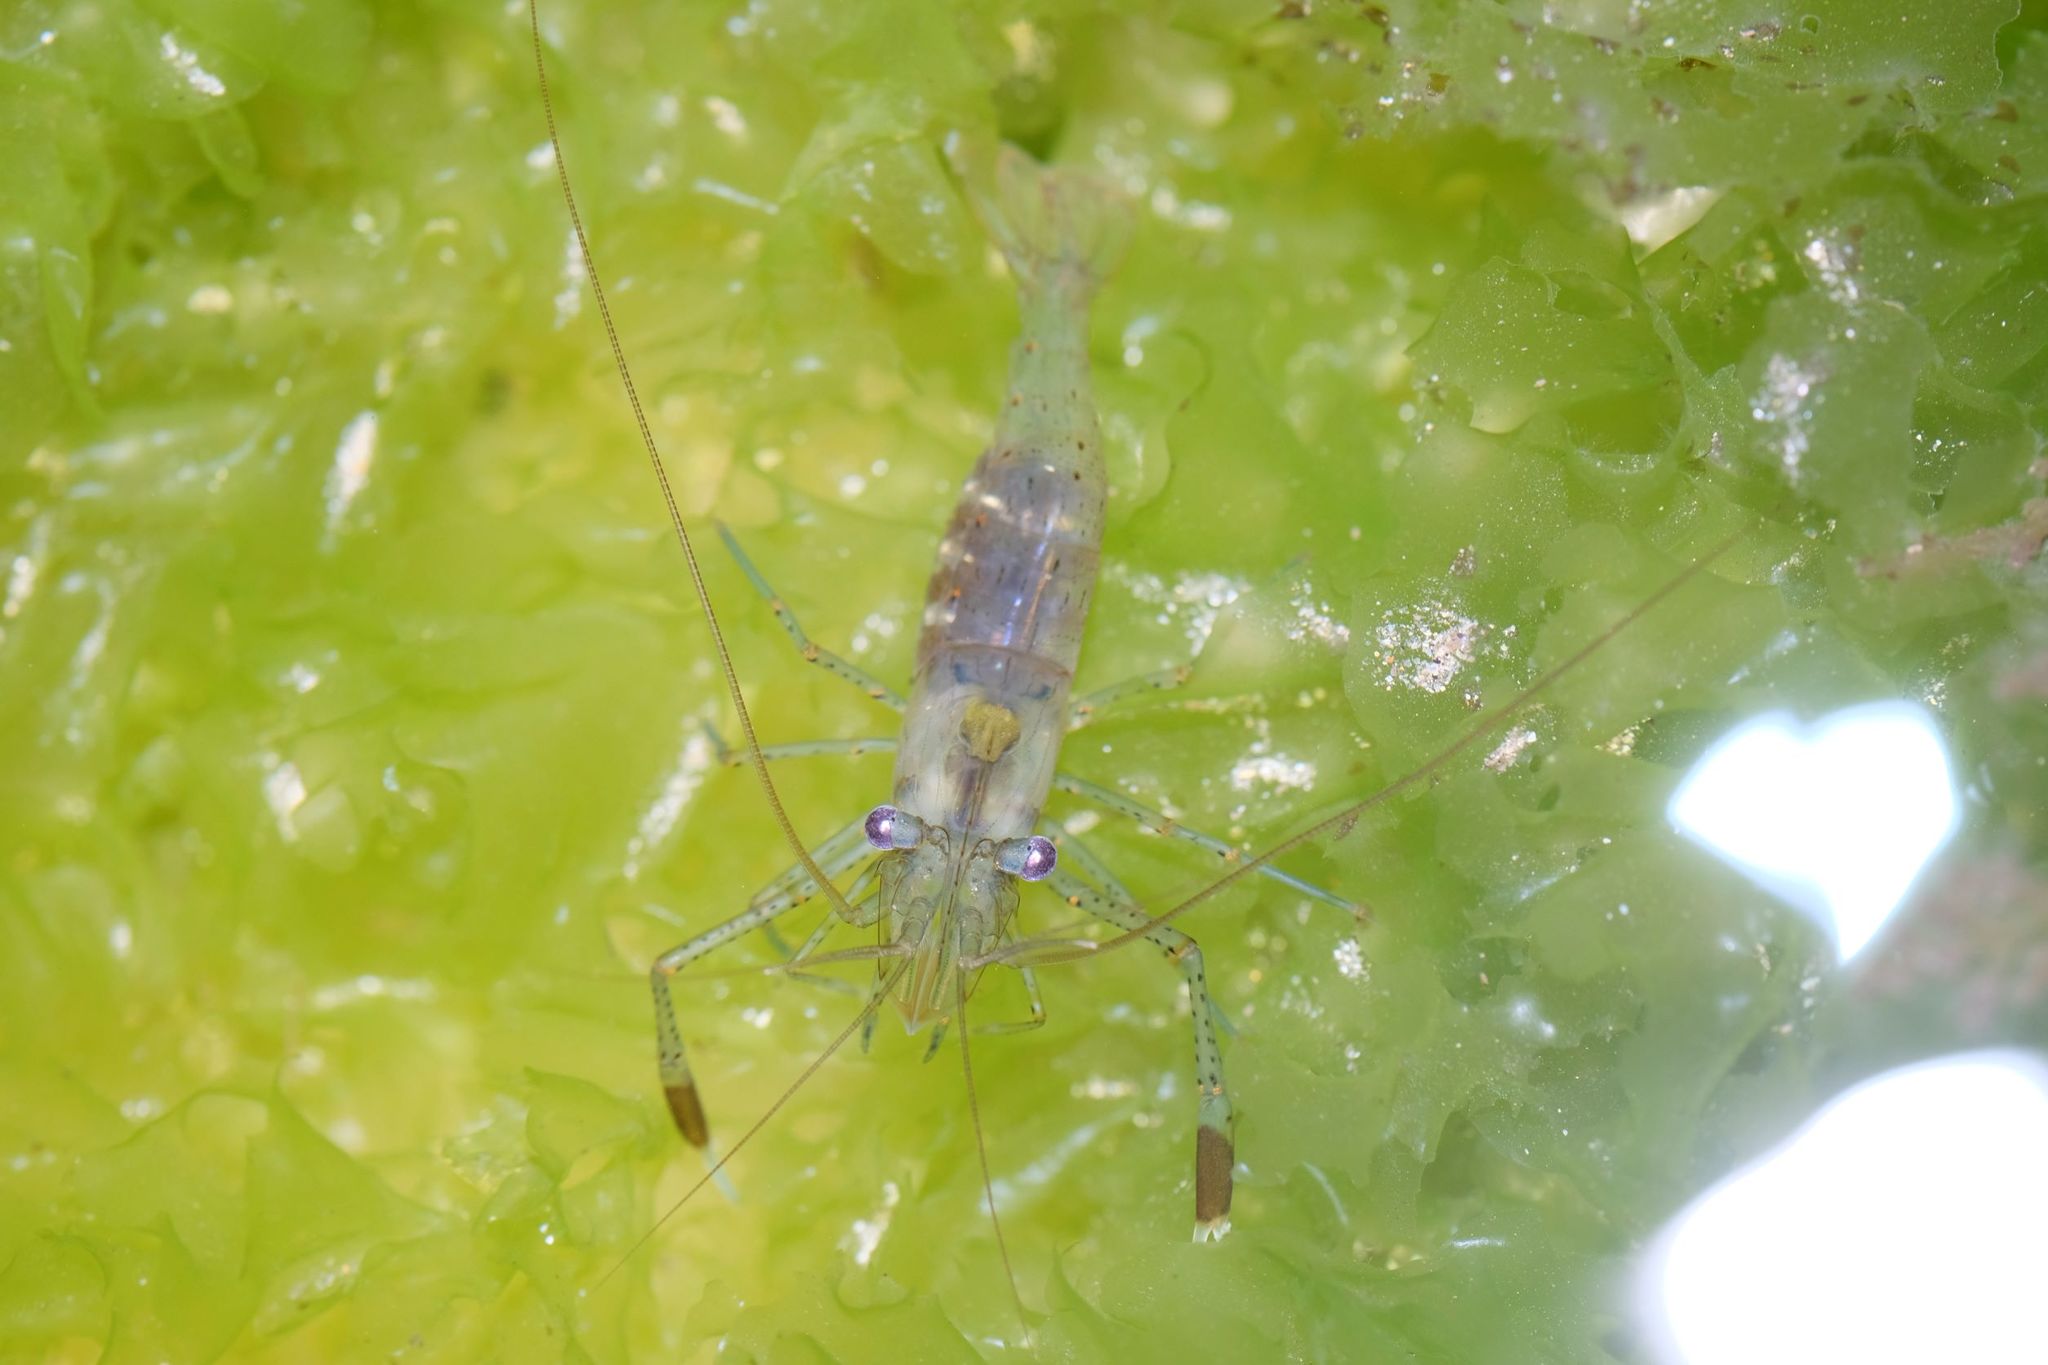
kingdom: Animalia
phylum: Arthropoda
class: Malacostraca
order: Decapoda
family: Palaemonidae
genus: Palaemon
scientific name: Palaemon serenus
